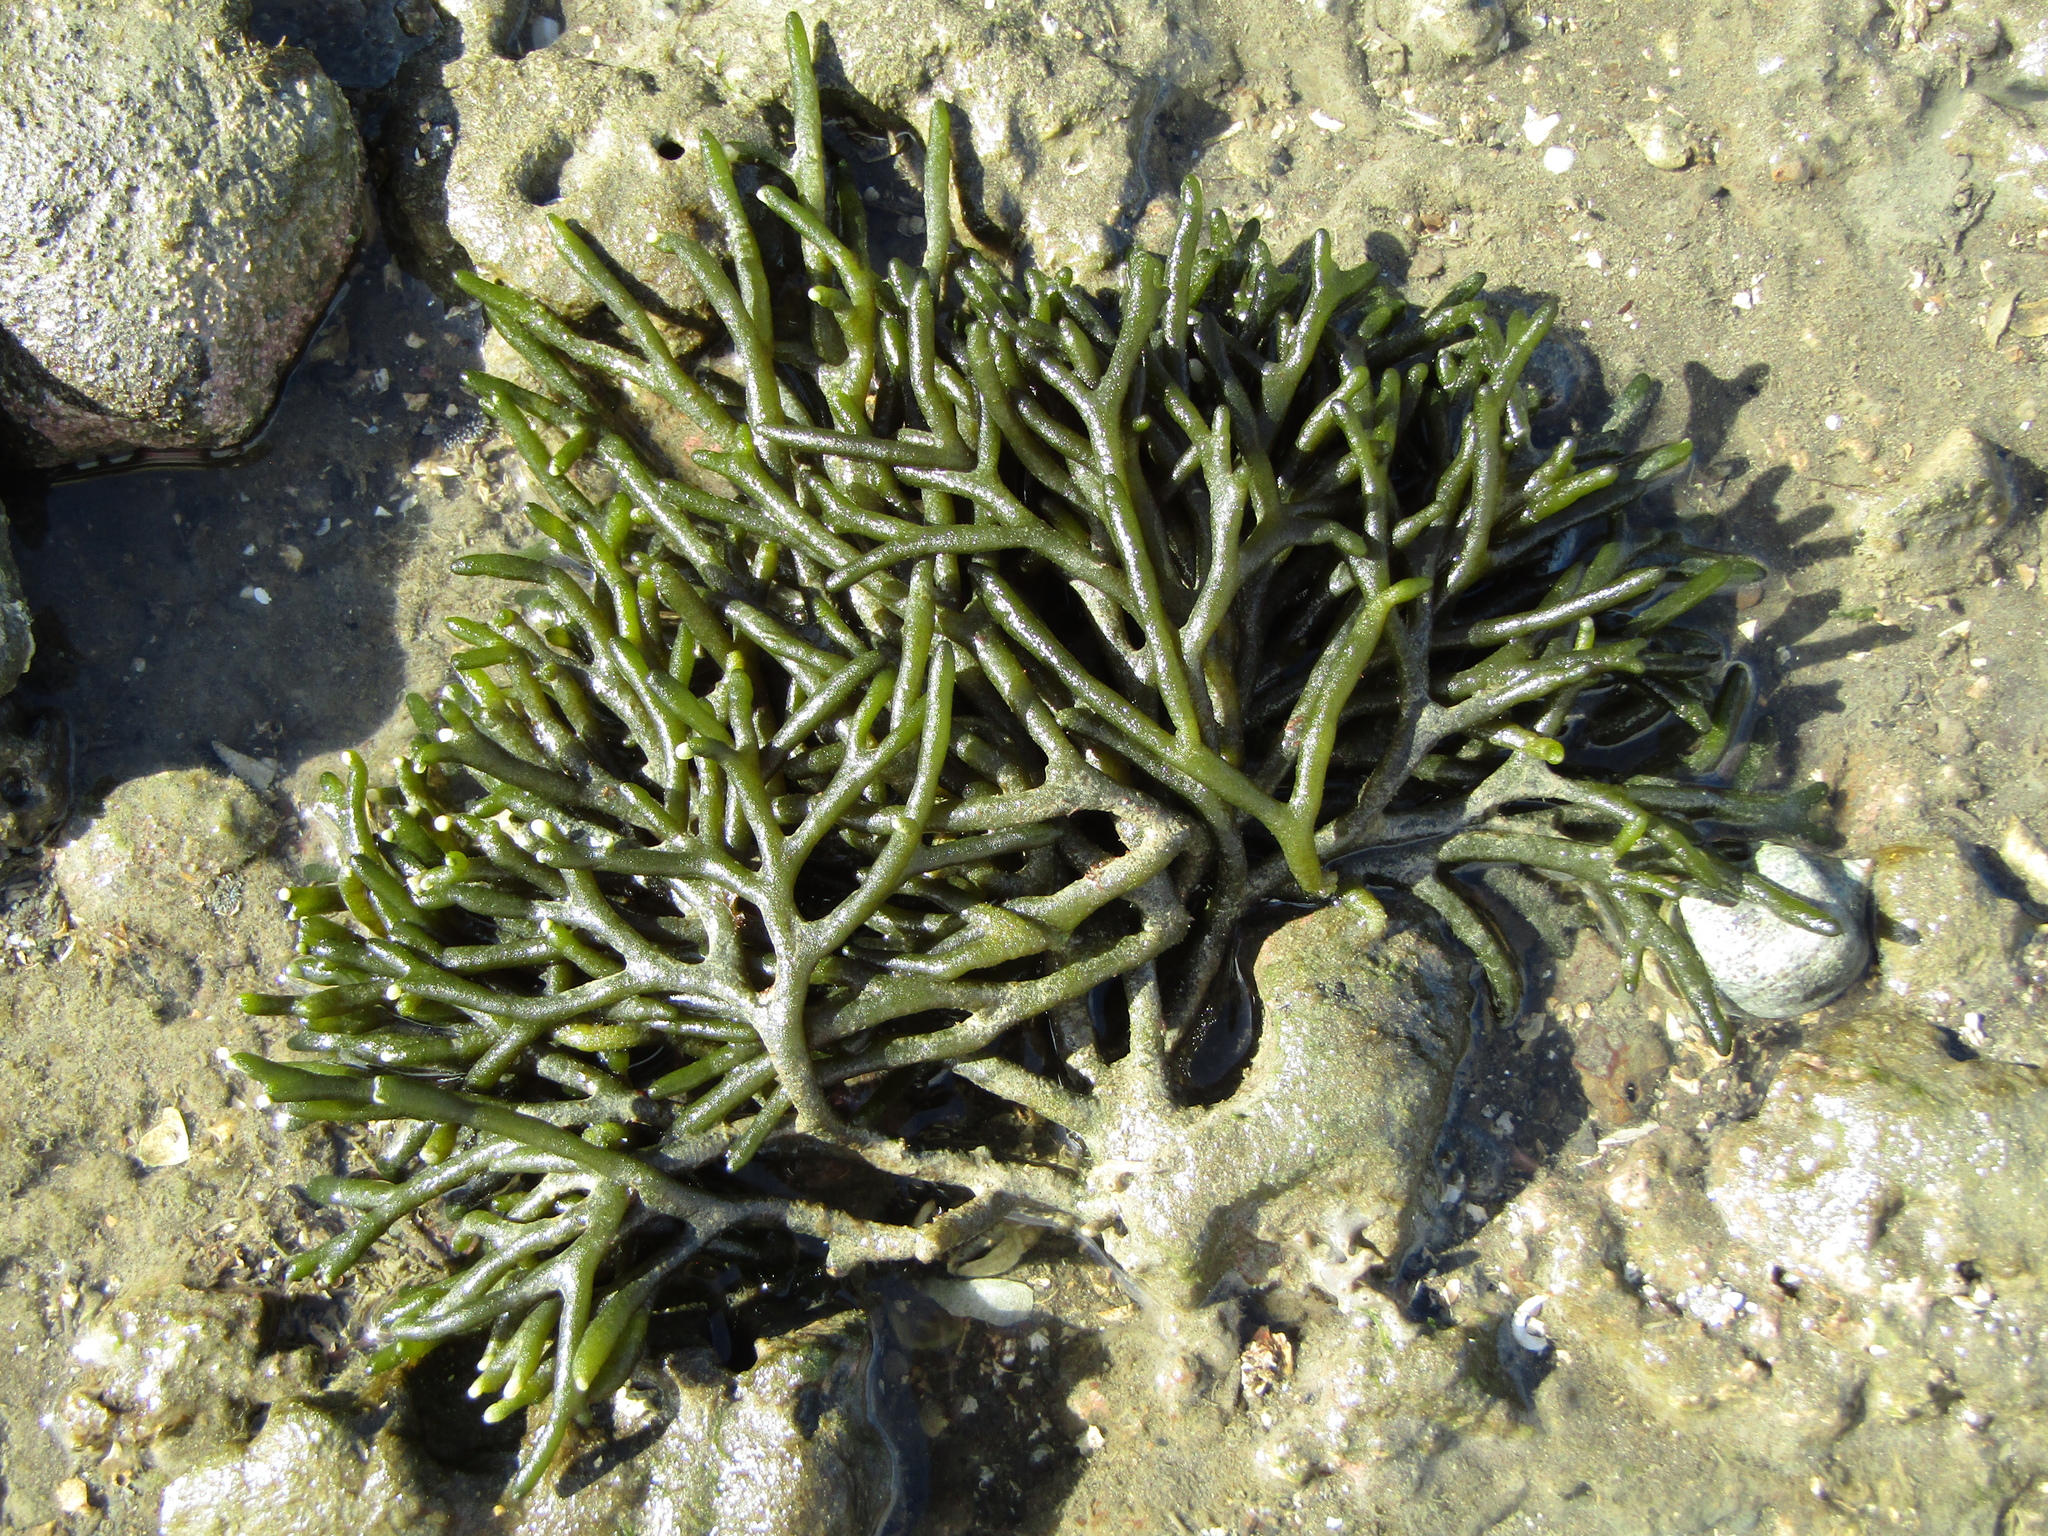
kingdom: Plantae
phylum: Chlorophyta
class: Ulvophyceae
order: Bryopsidales
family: Codiaceae
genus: Codium
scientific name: Codium fragile
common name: Dead man's fingers
